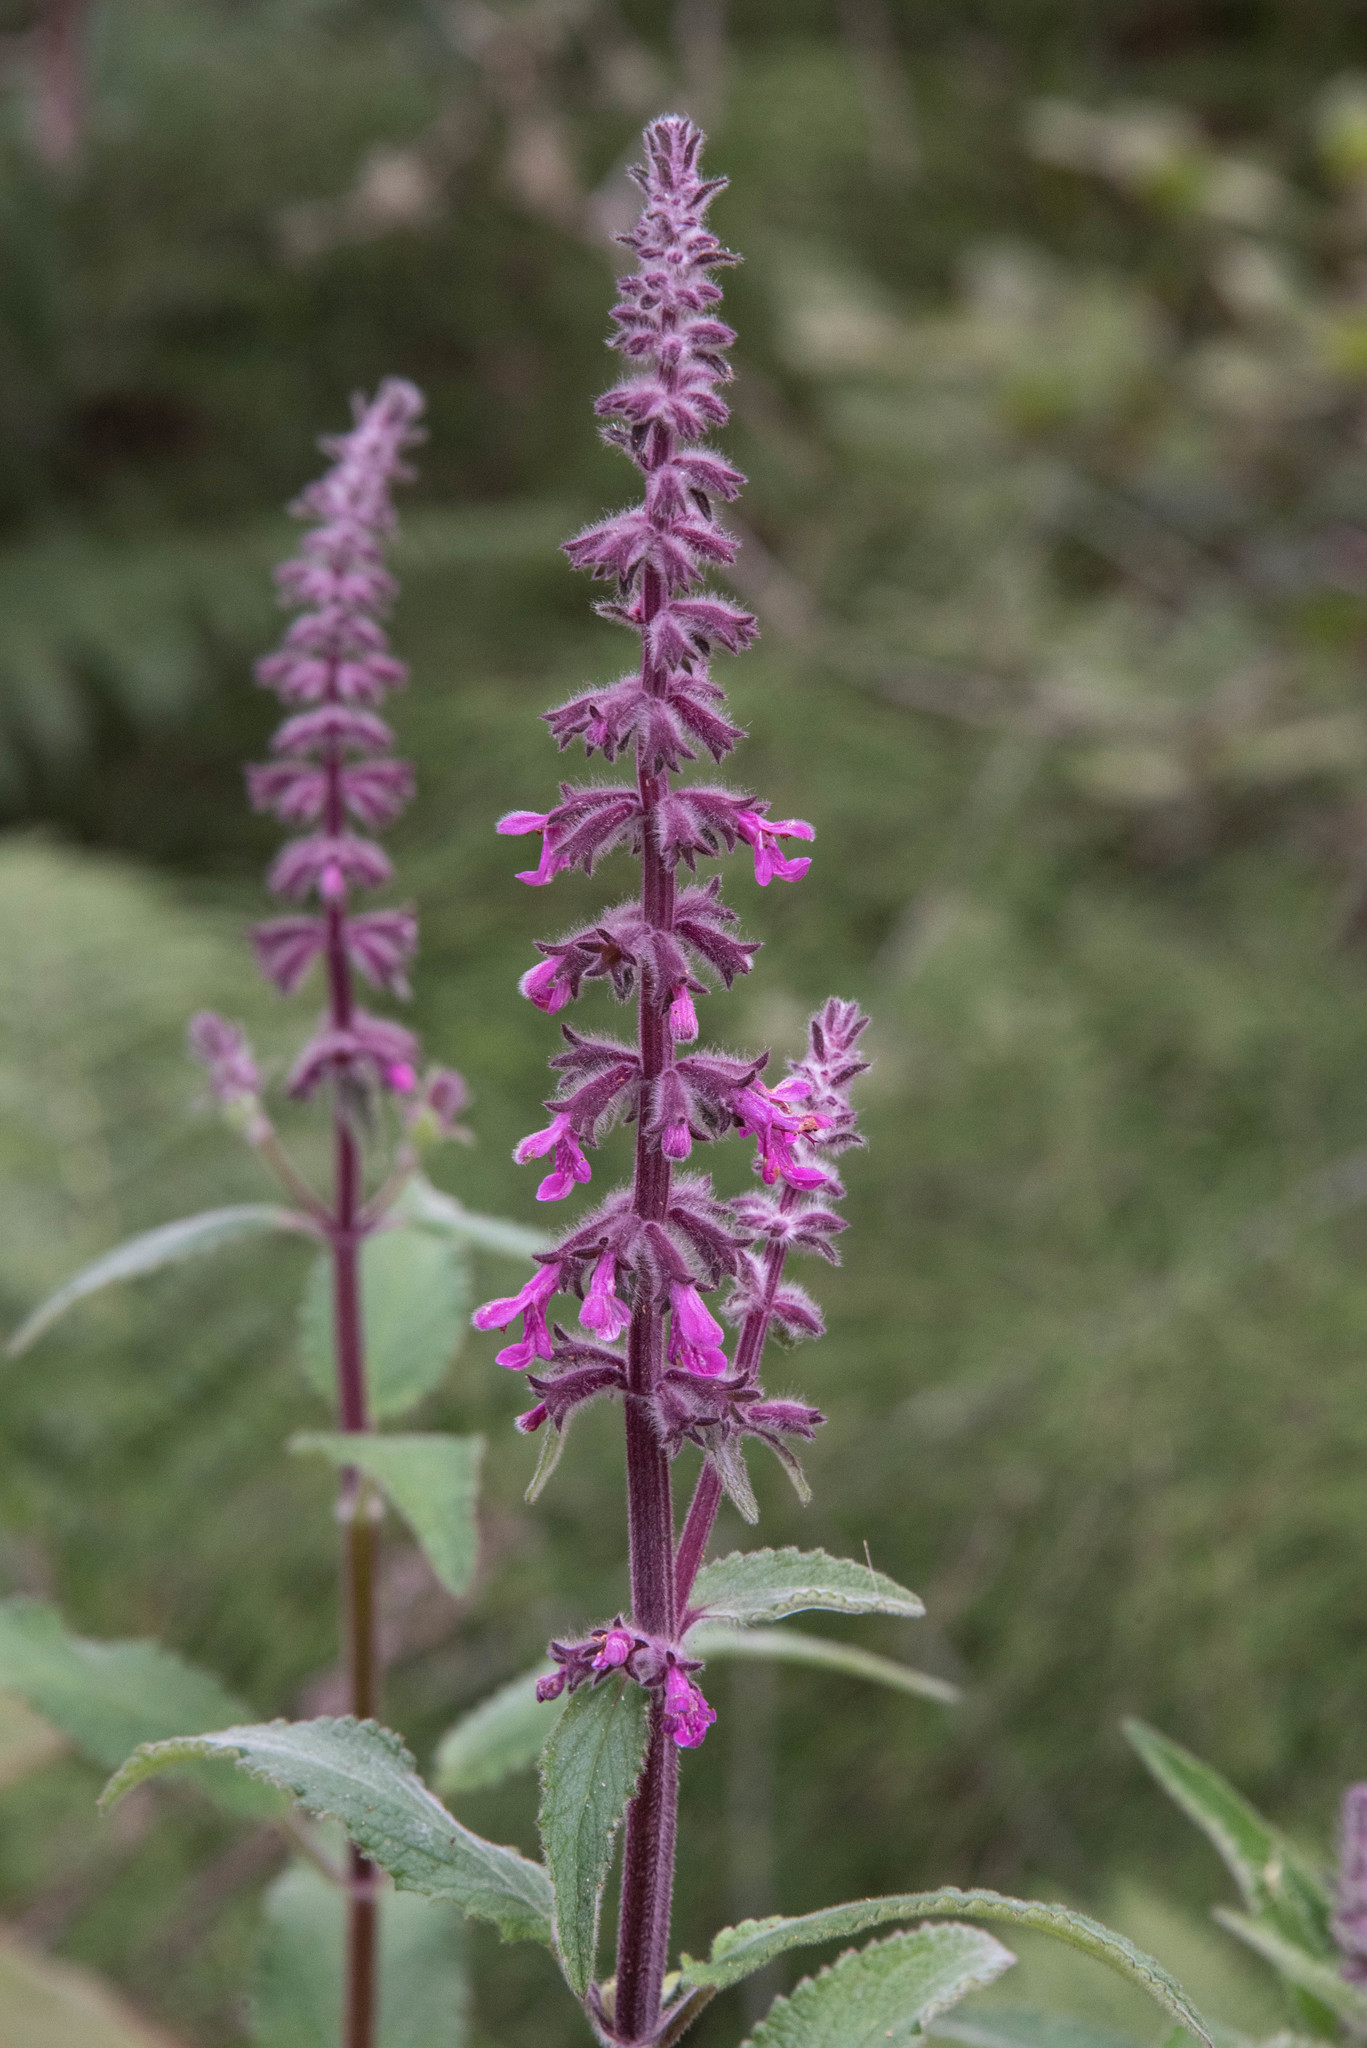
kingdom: Plantae
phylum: Tracheophyta
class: Magnoliopsida
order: Lamiales
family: Lamiaceae
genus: Stachys
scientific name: Stachys chamissonis
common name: Coastal hedge-nettle
